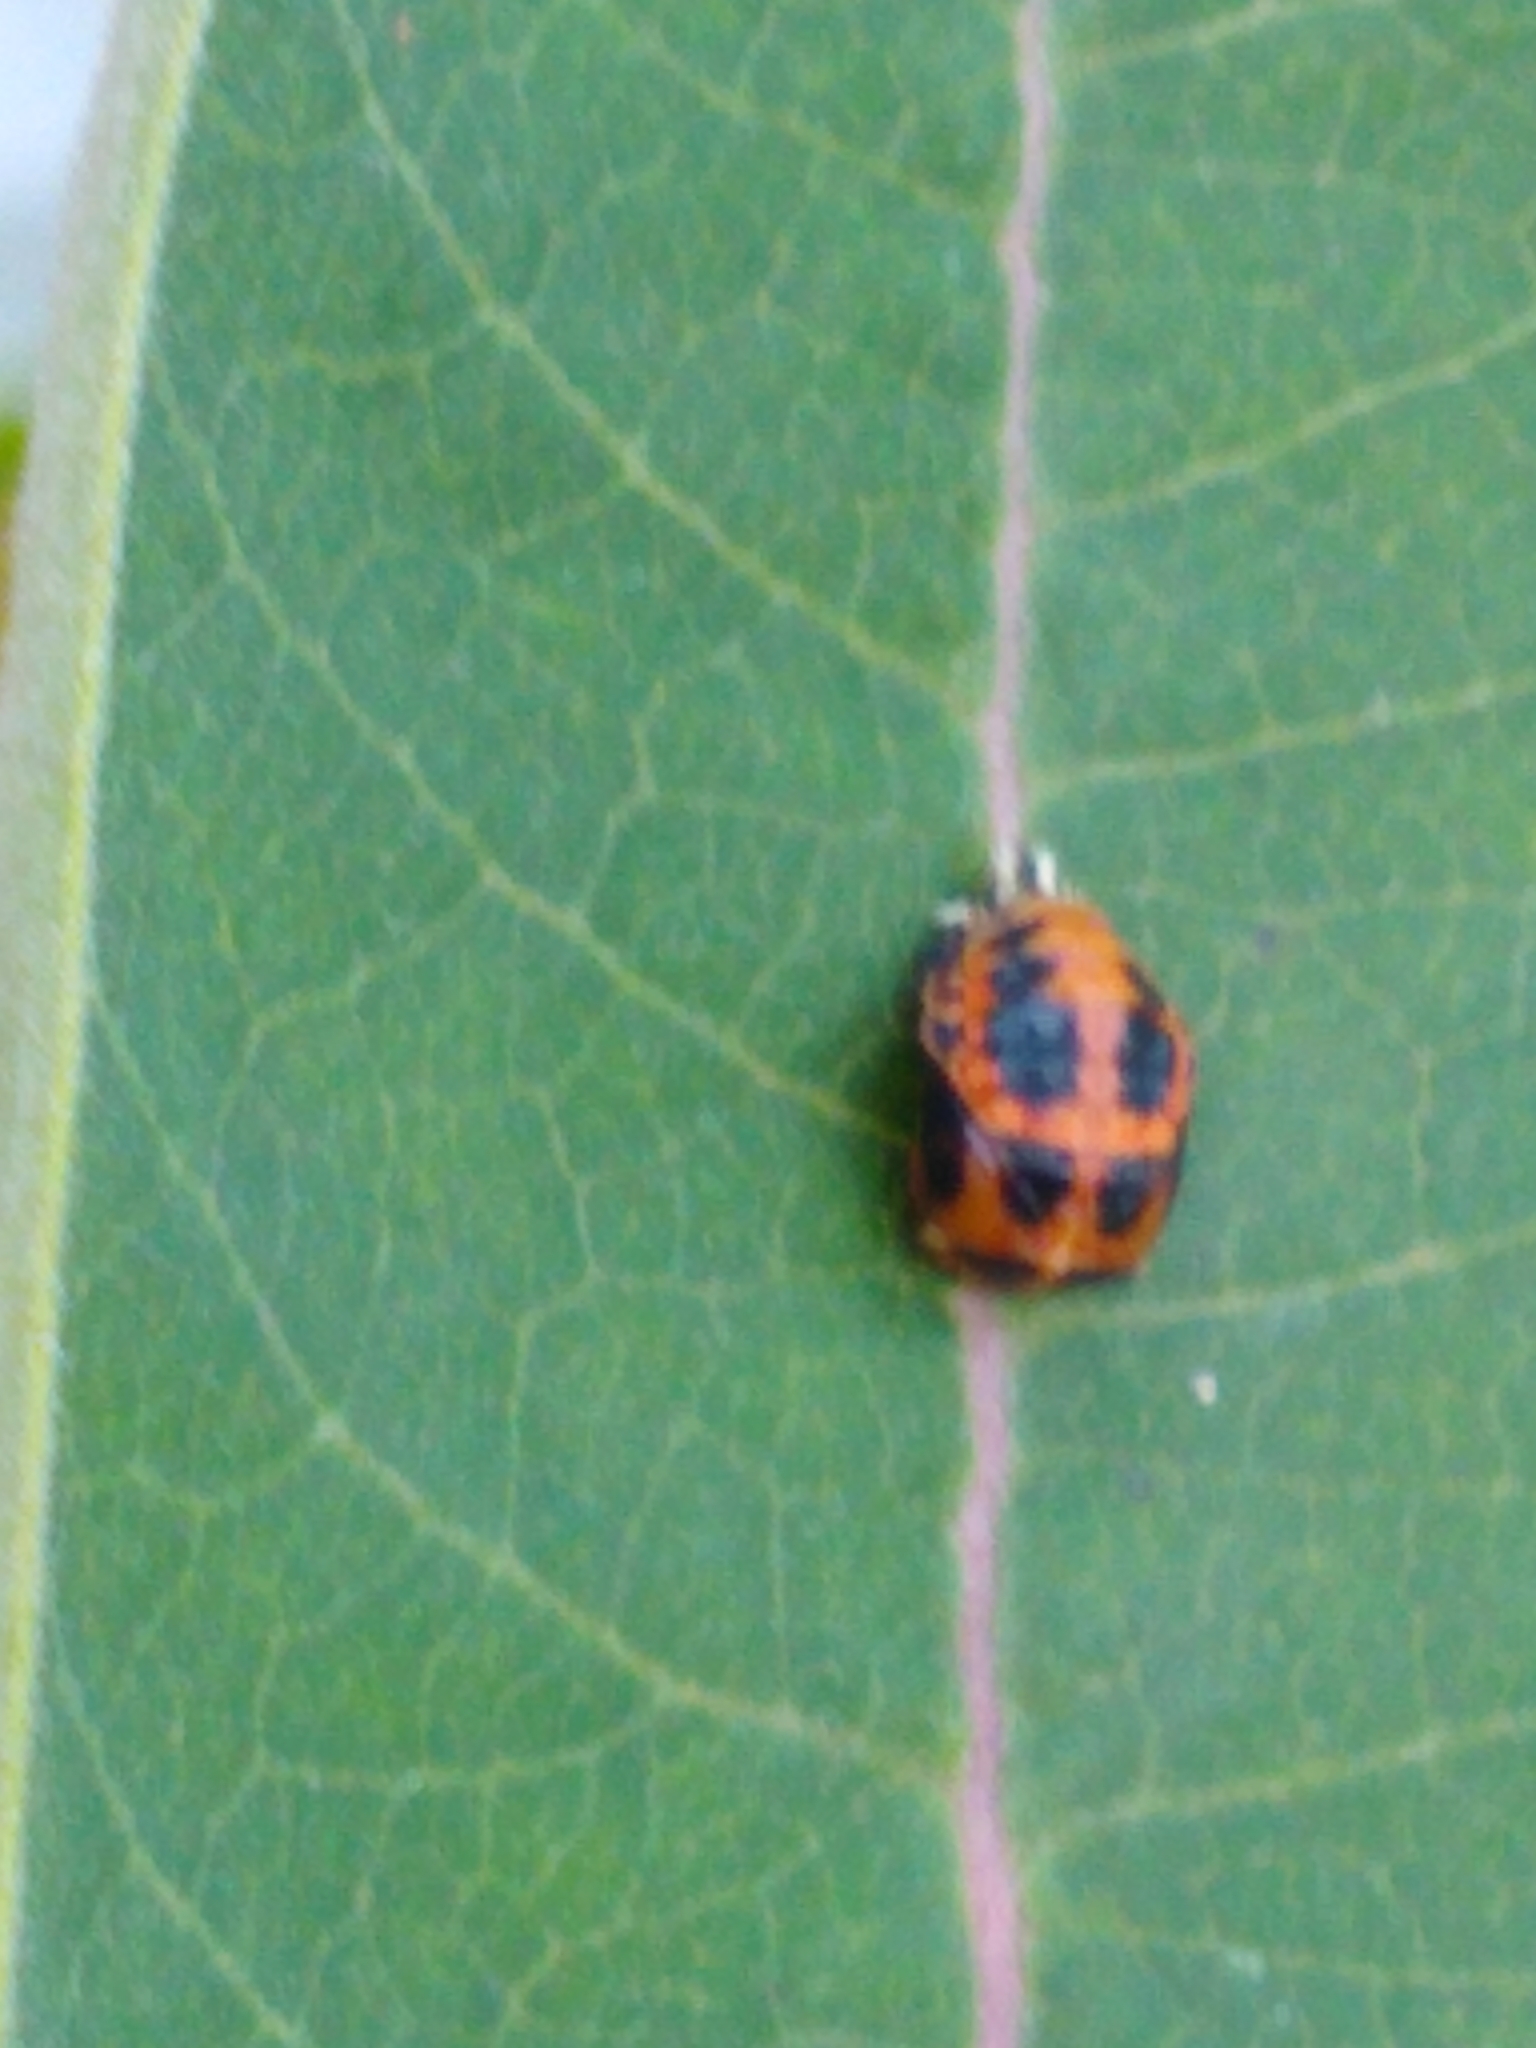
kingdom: Animalia
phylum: Arthropoda
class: Insecta
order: Coleoptera
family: Coccinellidae
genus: Harmonia
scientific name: Harmonia axyridis
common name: Harlequin ladybird
